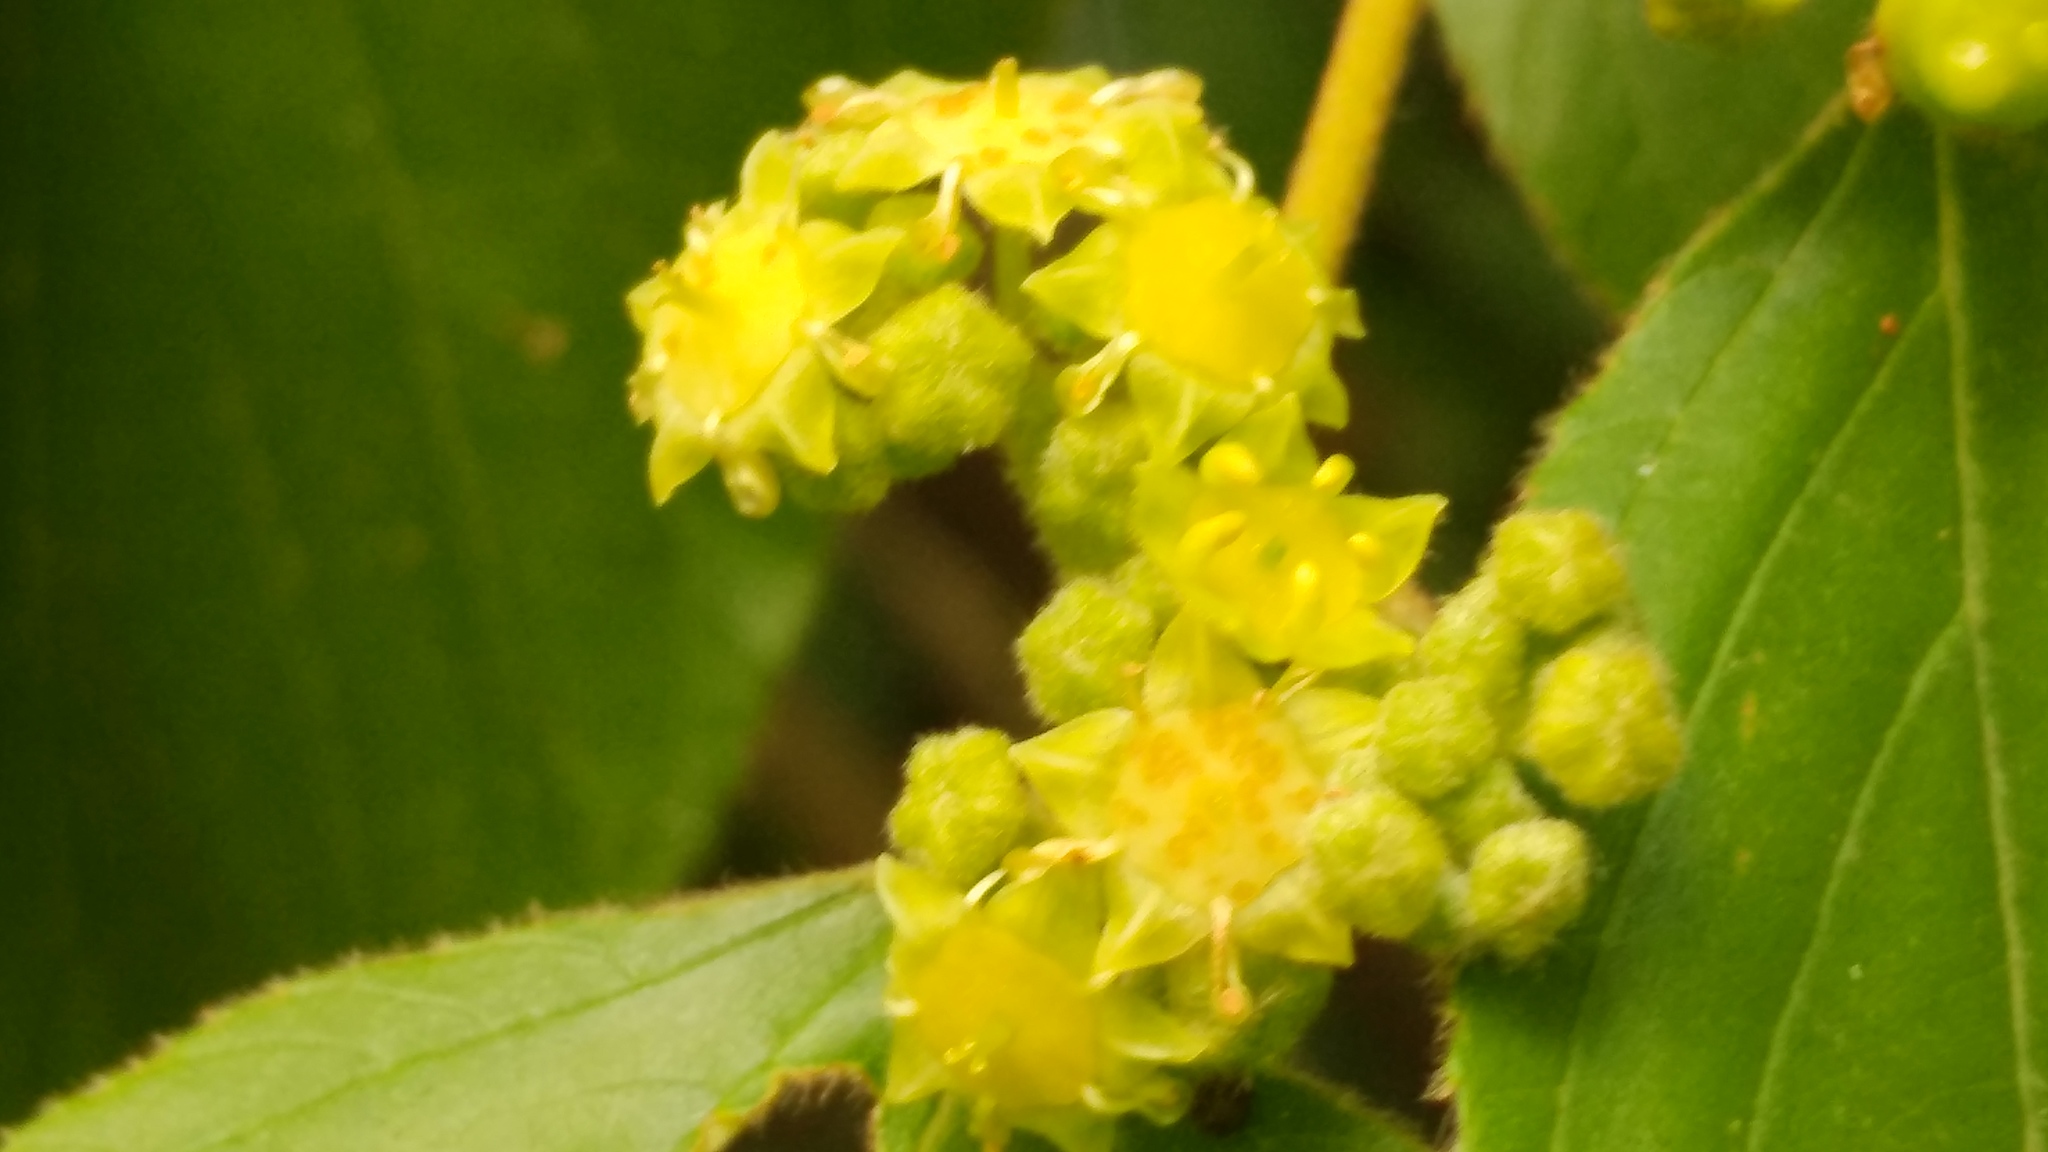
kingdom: Plantae
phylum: Tracheophyta
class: Magnoliopsida
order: Rosales
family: Rhamnaceae
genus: Colubrina
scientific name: Colubrina greggii
